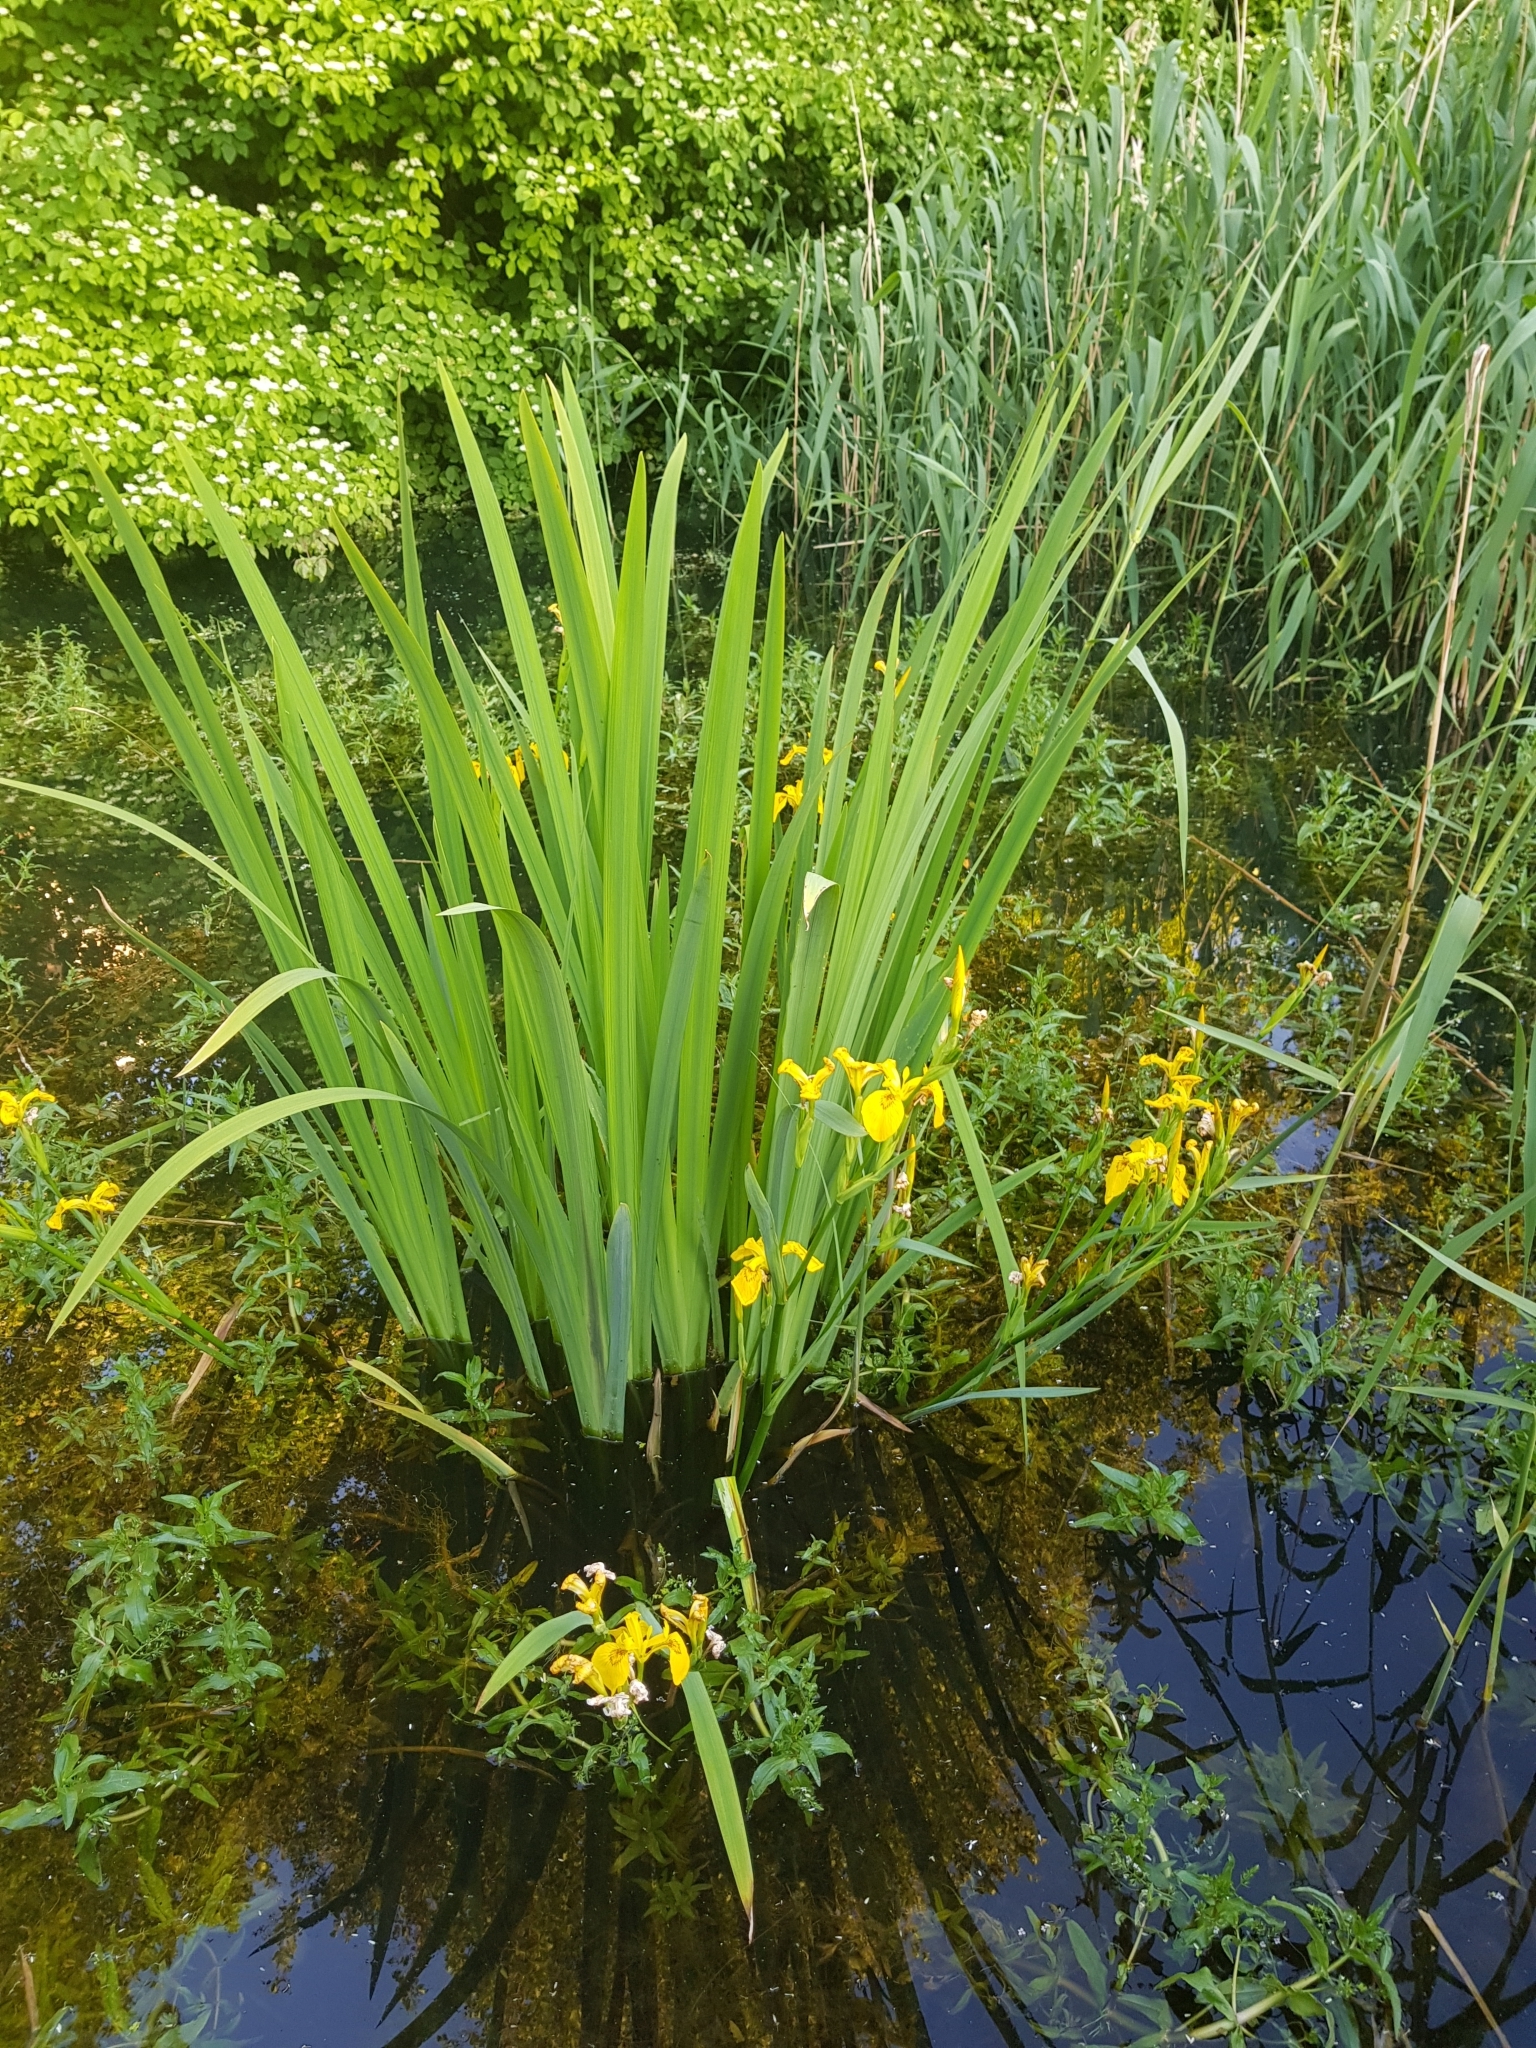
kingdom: Plantae
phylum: Tracheophyta
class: Liliopsida
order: Asparagales
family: Iridaceae
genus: Iris
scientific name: Iris pseudacorus
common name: Yellow flag
